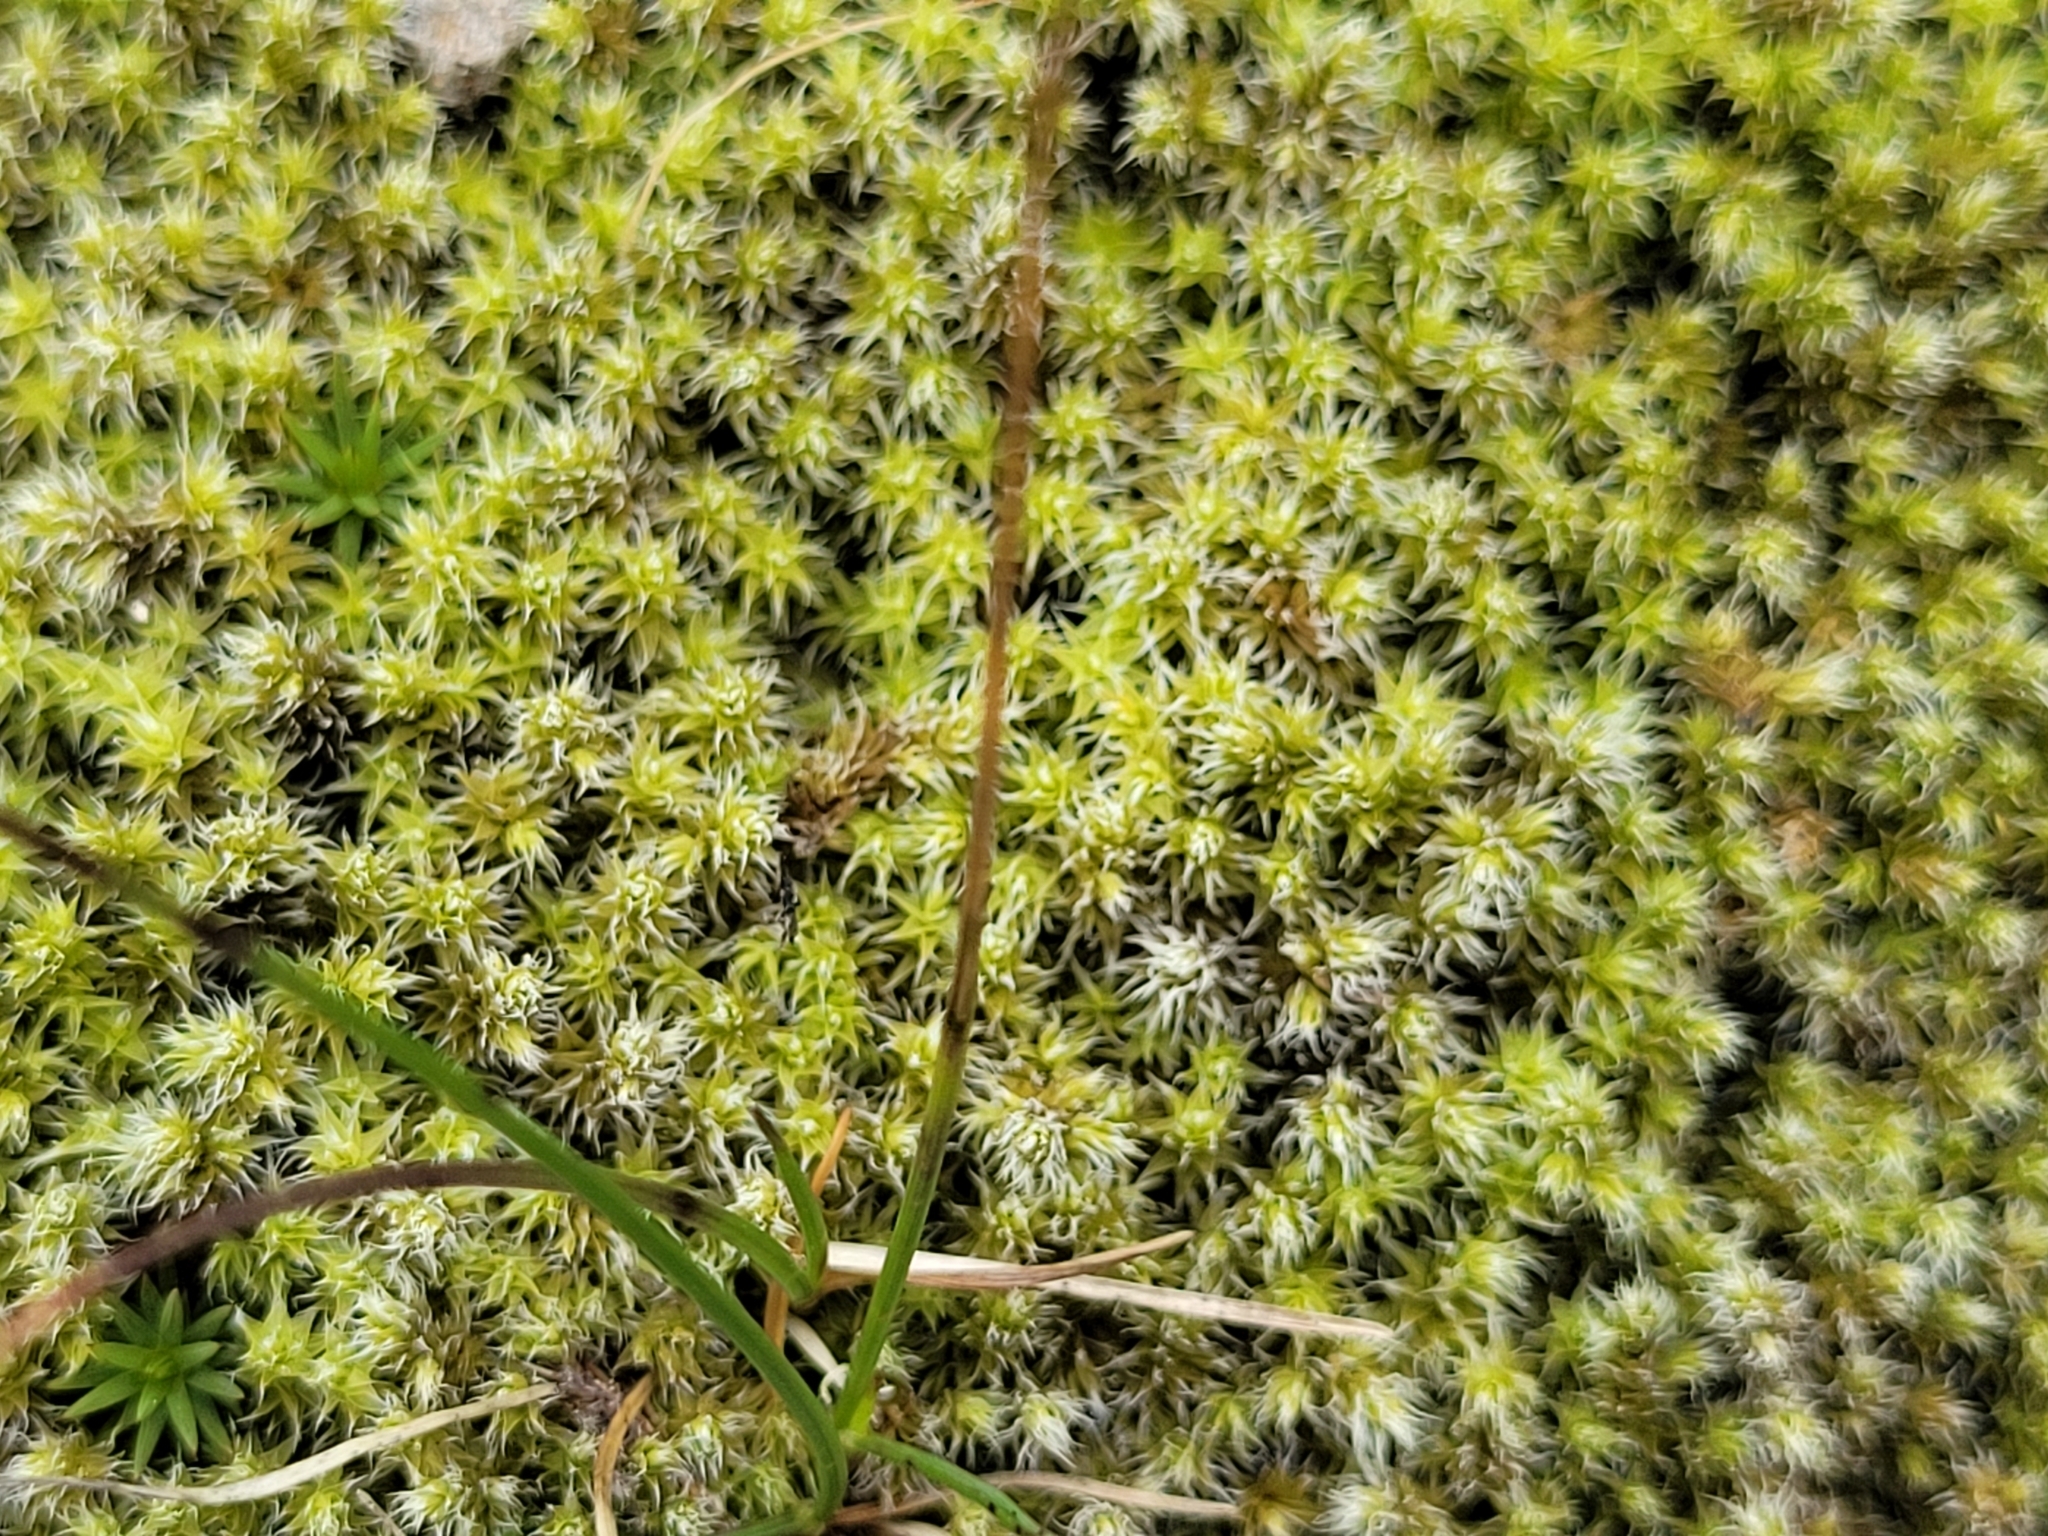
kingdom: Plantae
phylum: Bryophyta
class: Bryopsida
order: Grimmiales
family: Grimmiaceae
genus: Niphotrichum
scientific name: Niphotrichum canescens
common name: Hoary fringe-moss
